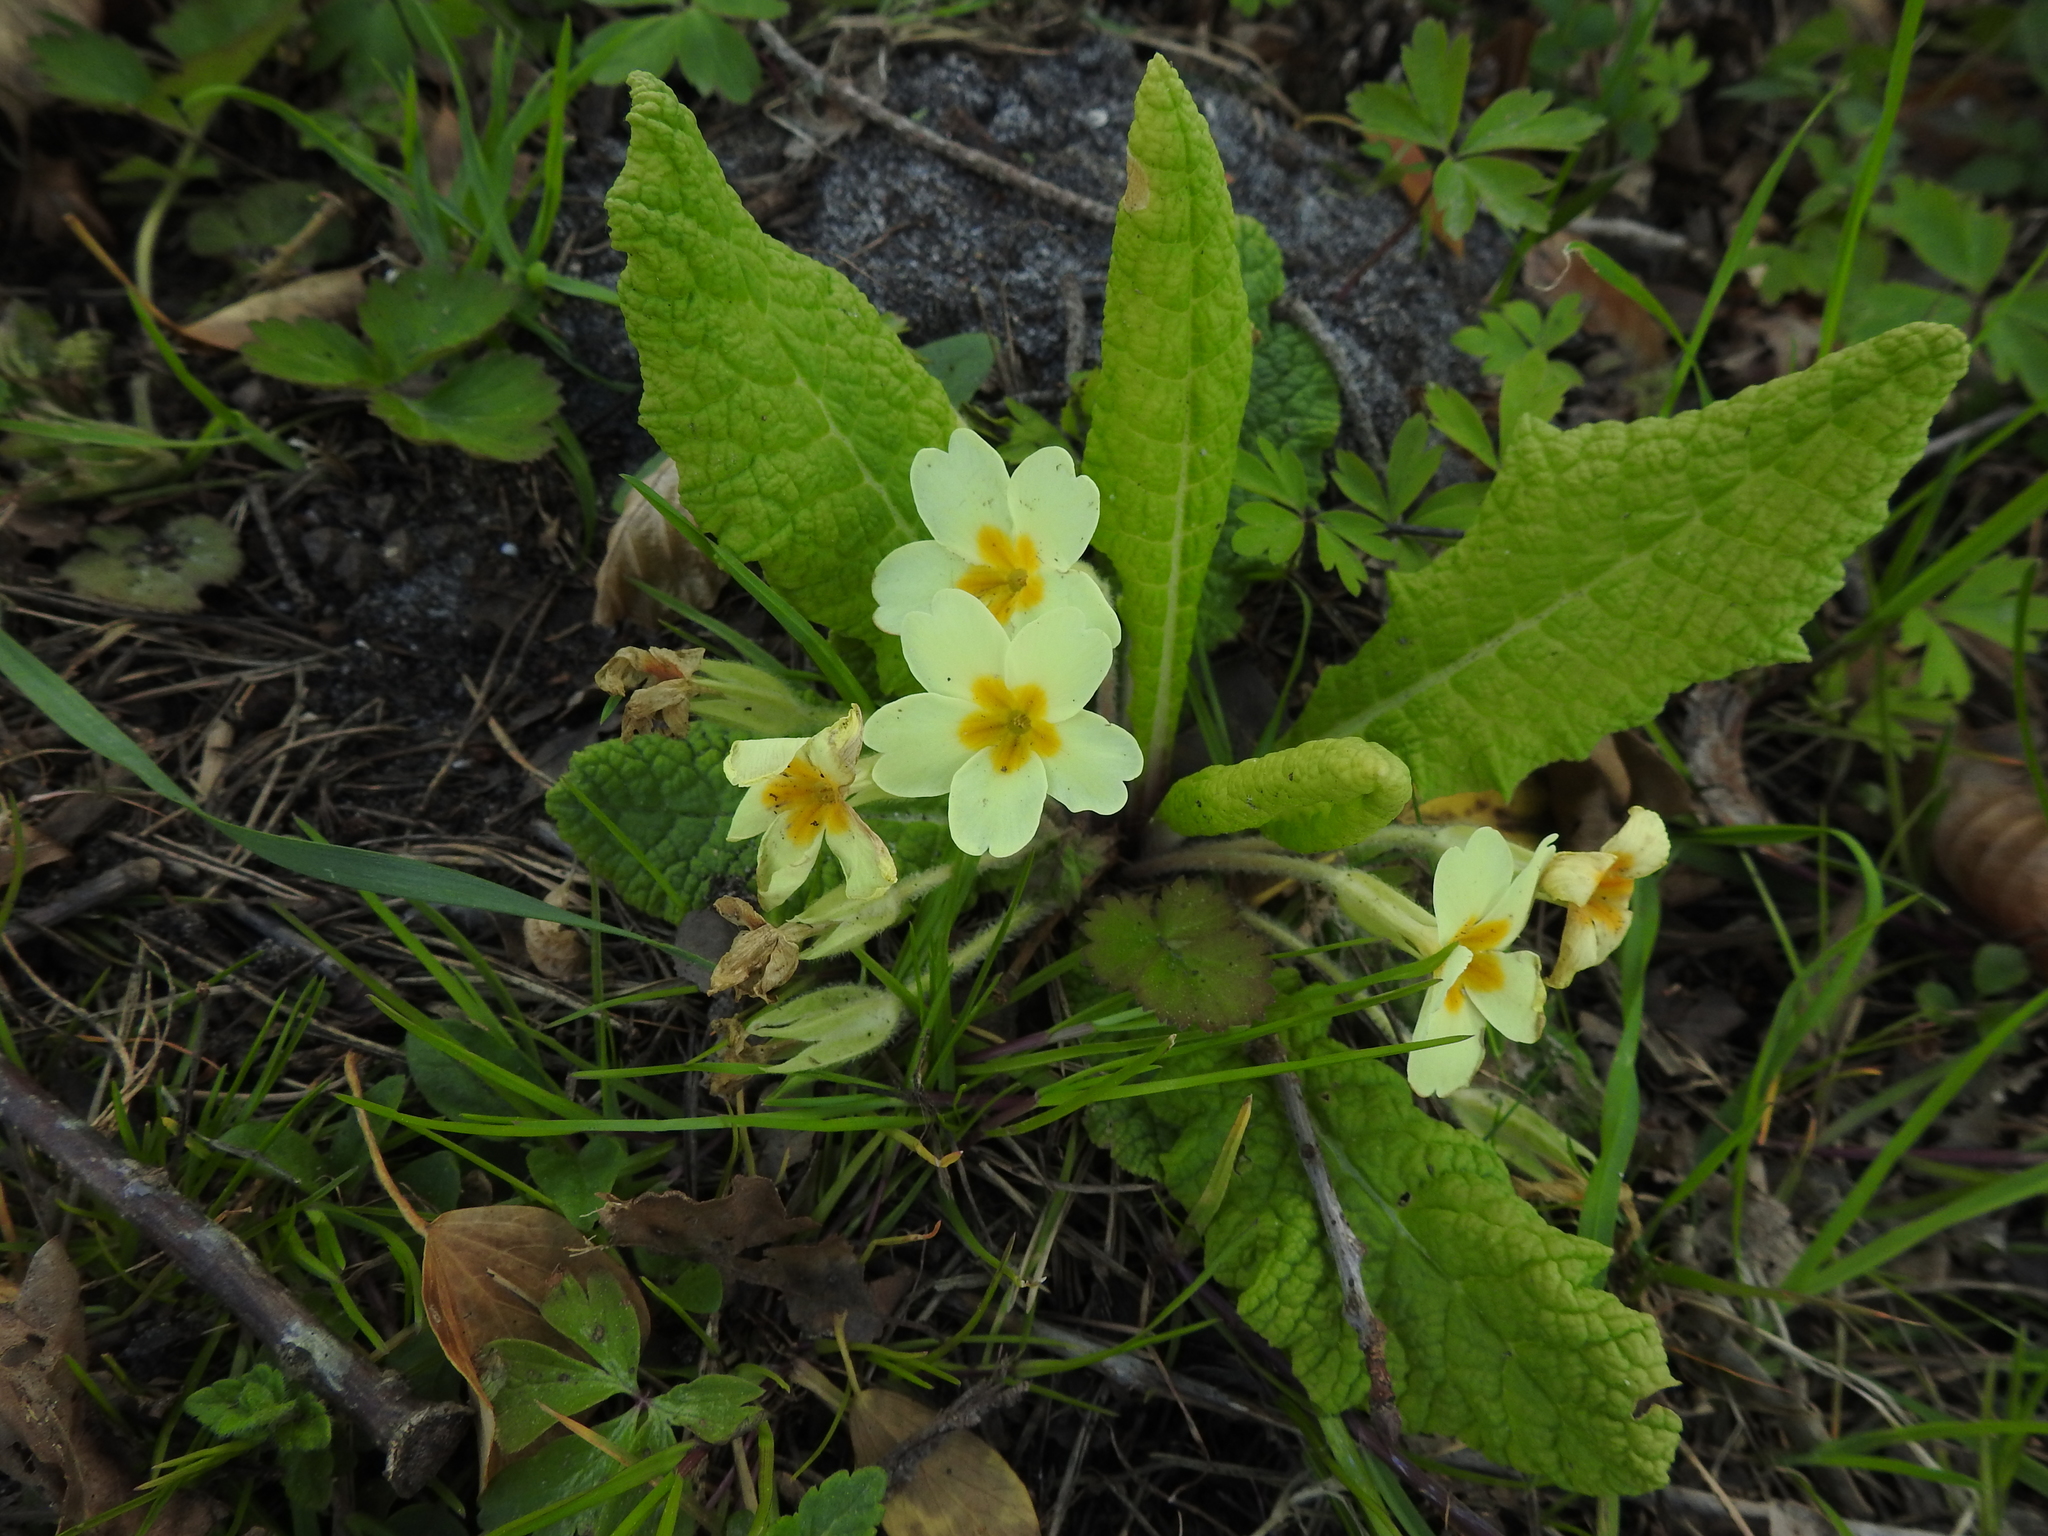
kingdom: Plantae
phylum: Tracheophyta
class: Magnoliopsida
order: Ericales
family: Primulaceae
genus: Primula
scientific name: Primula vulgaris
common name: Primrose
